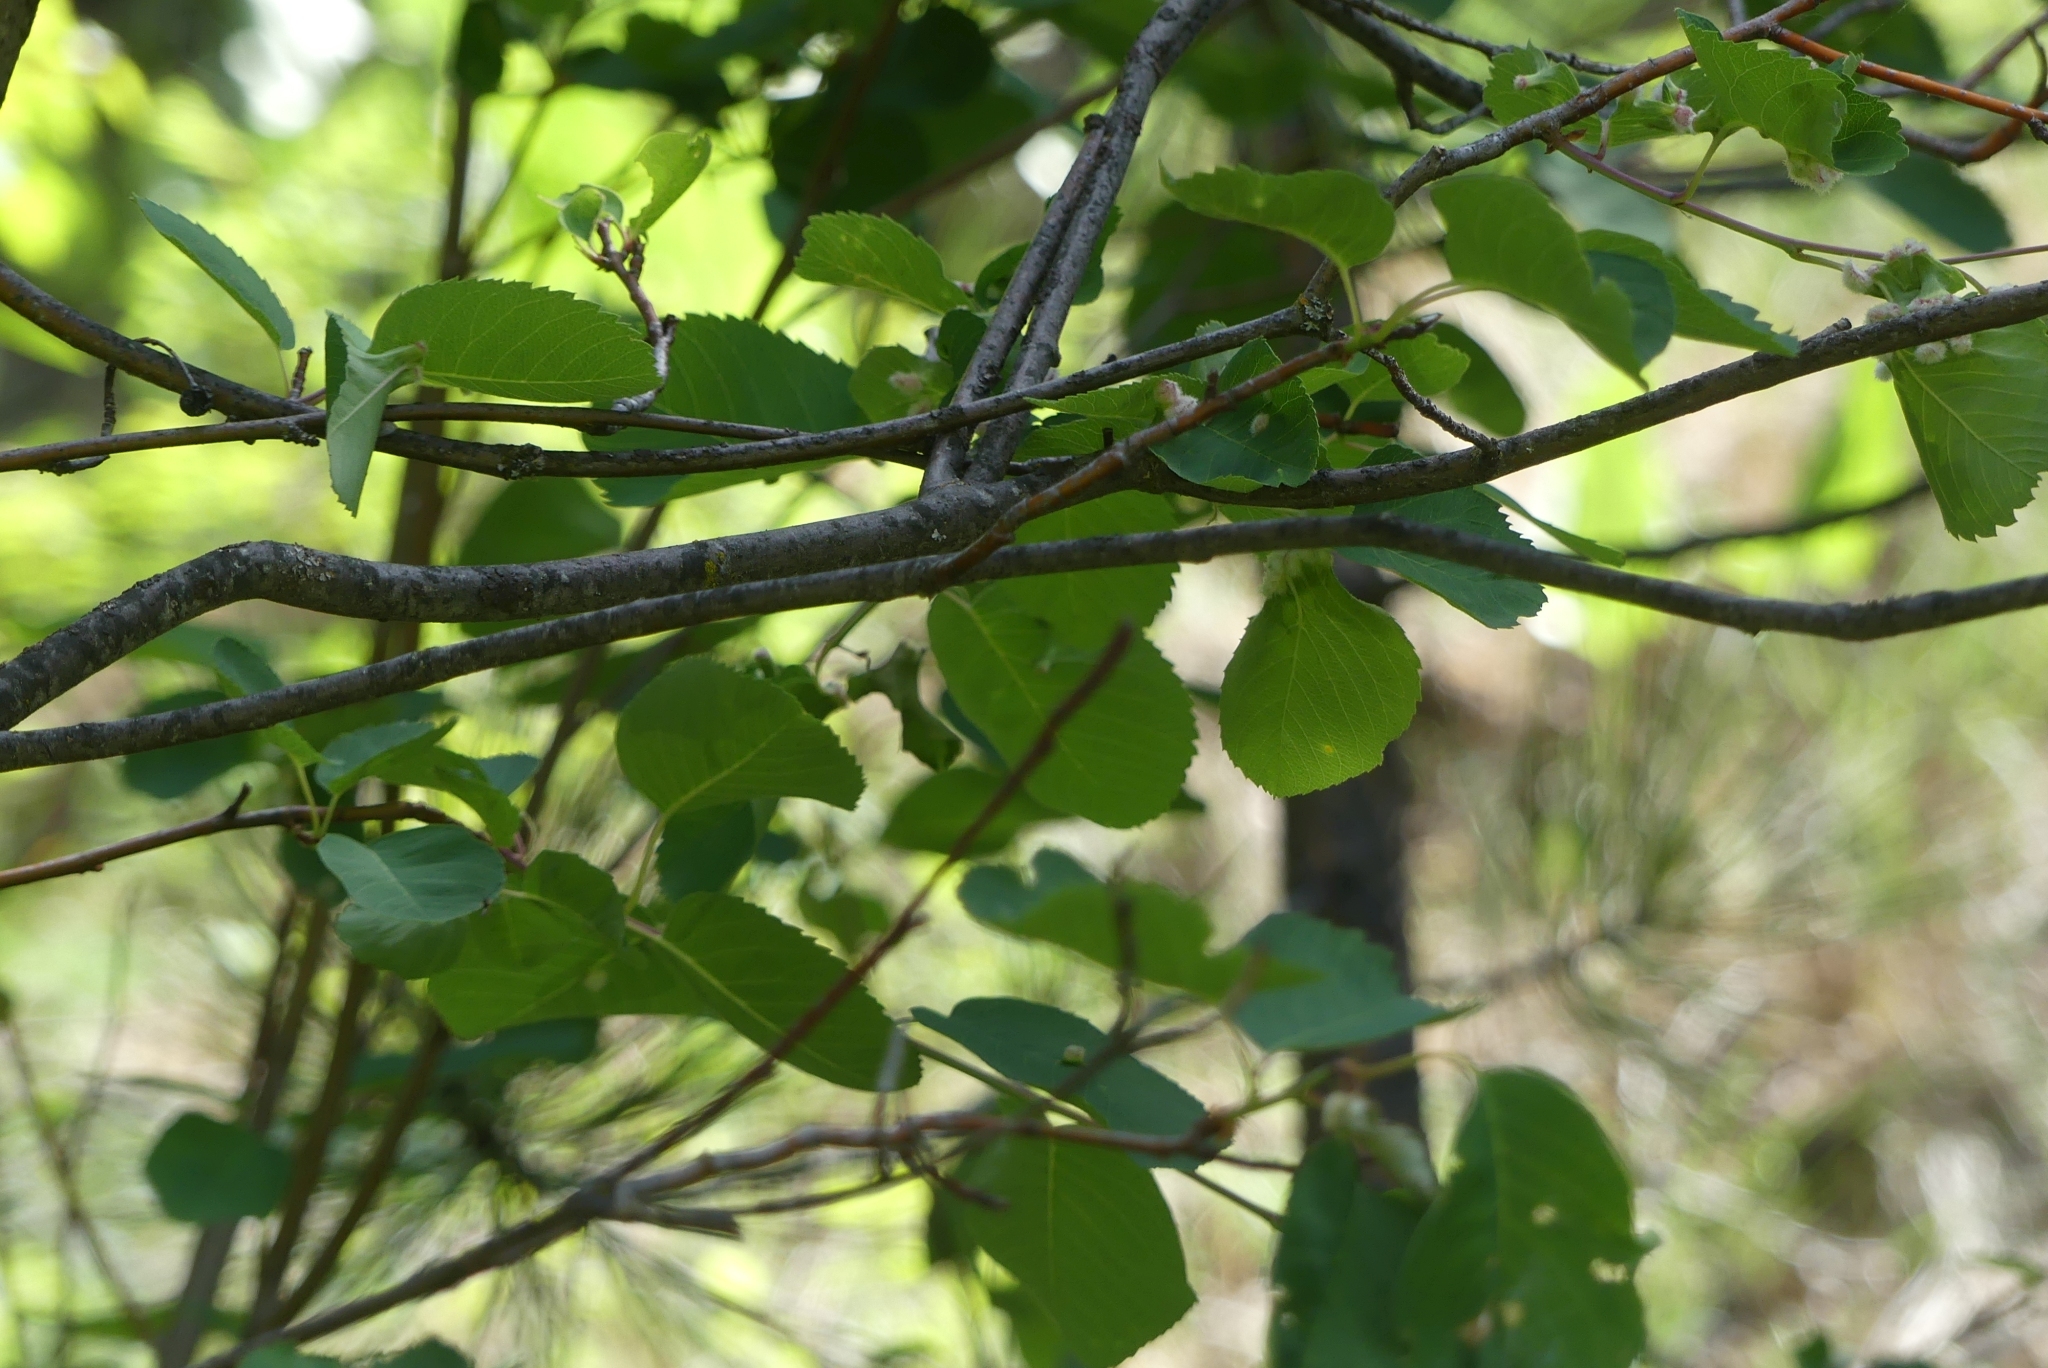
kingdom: Plantae
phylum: Tracheophyta
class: Magnoliopsida
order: Rosales
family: Rosaceae
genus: Amelanchier
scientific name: Amelanchier alnifolia
